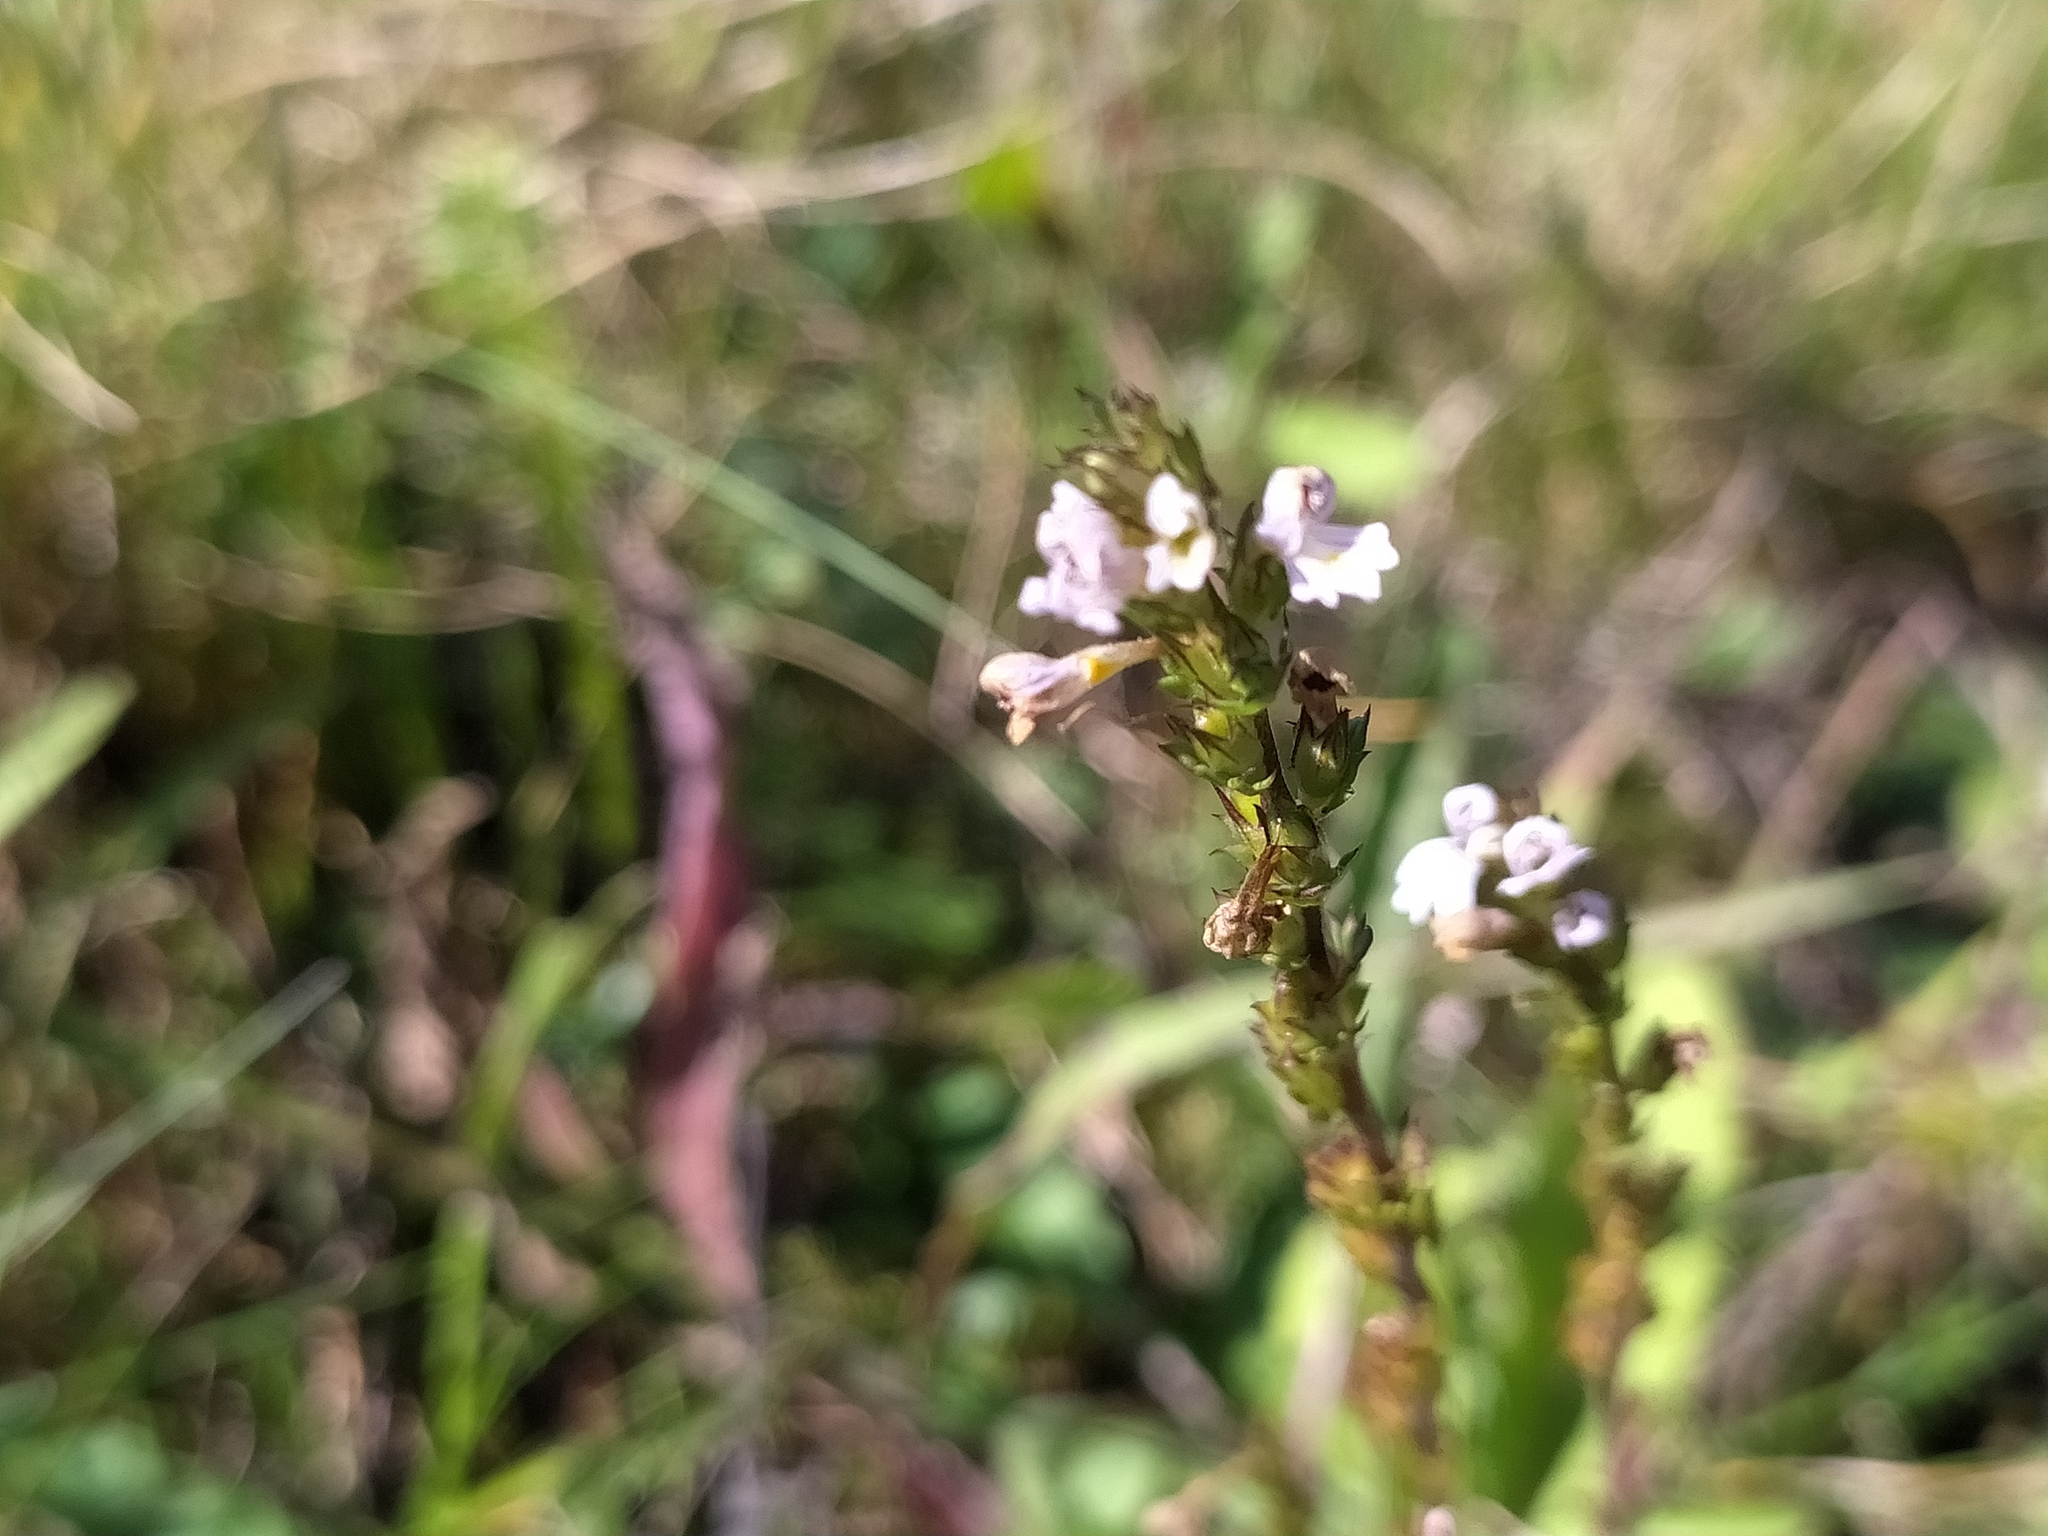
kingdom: Plantae
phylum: Tracheophyta
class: Magnoliopsida
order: Lamiales
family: Orobanchaceae
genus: Euphrasia
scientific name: Euphrasia stricta
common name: Drug eyebright
